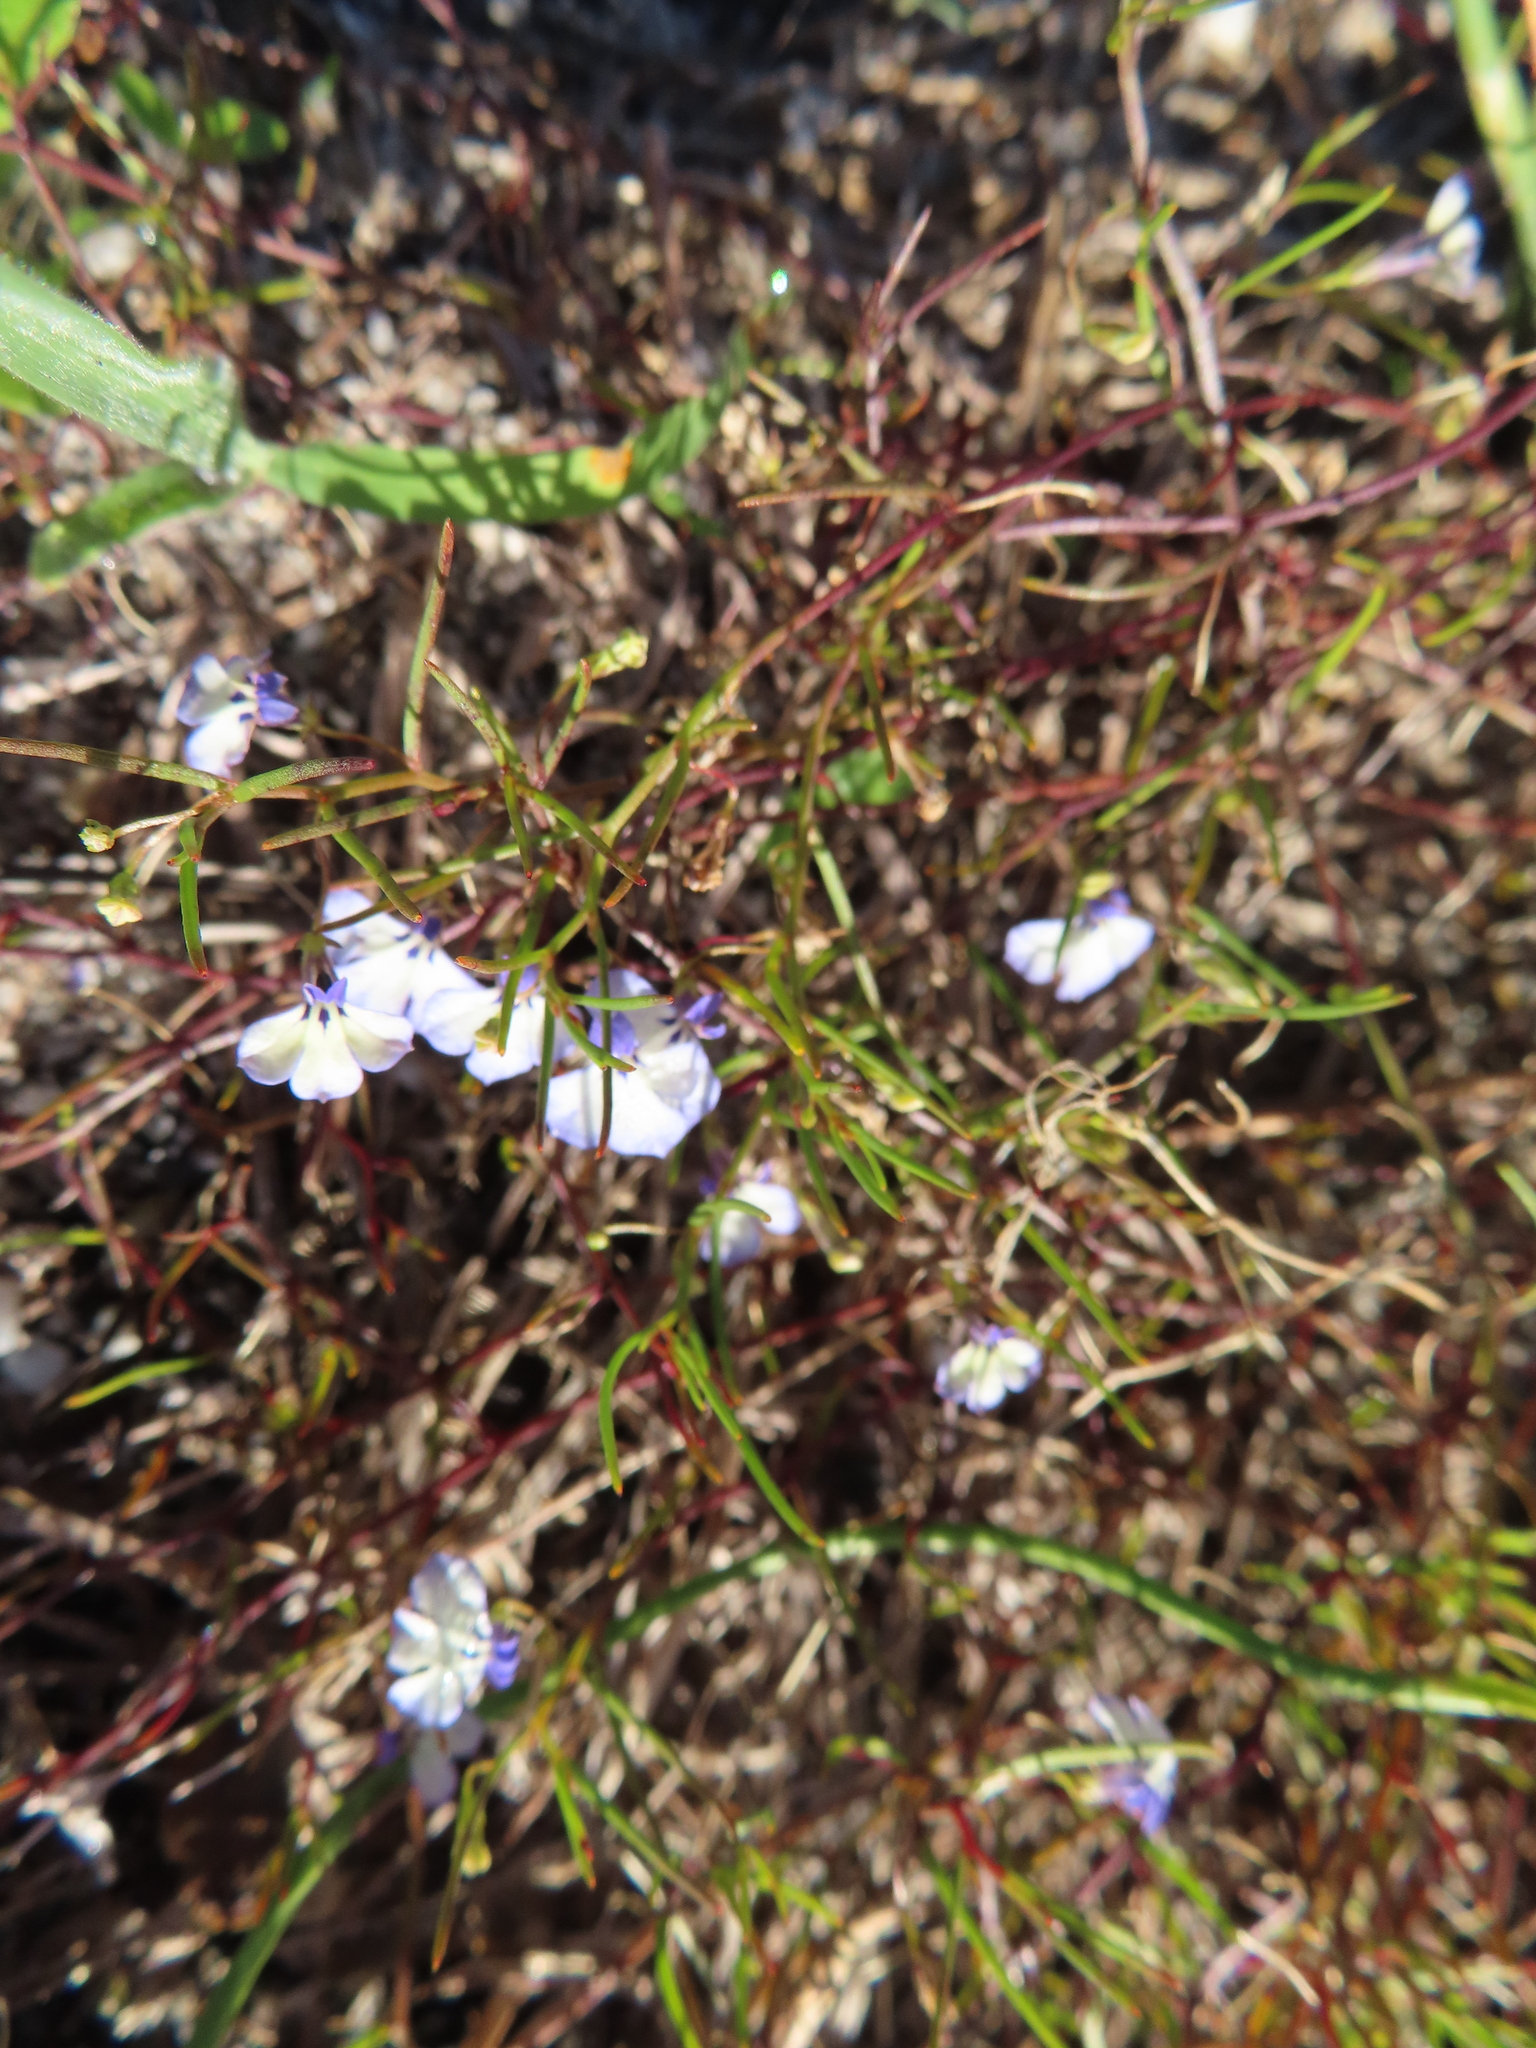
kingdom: Plantae
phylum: Tracheophyta
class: Magnoliopsida
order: Asterales
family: Campanulaceae
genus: Lobelia
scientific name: Lobelia setacea
